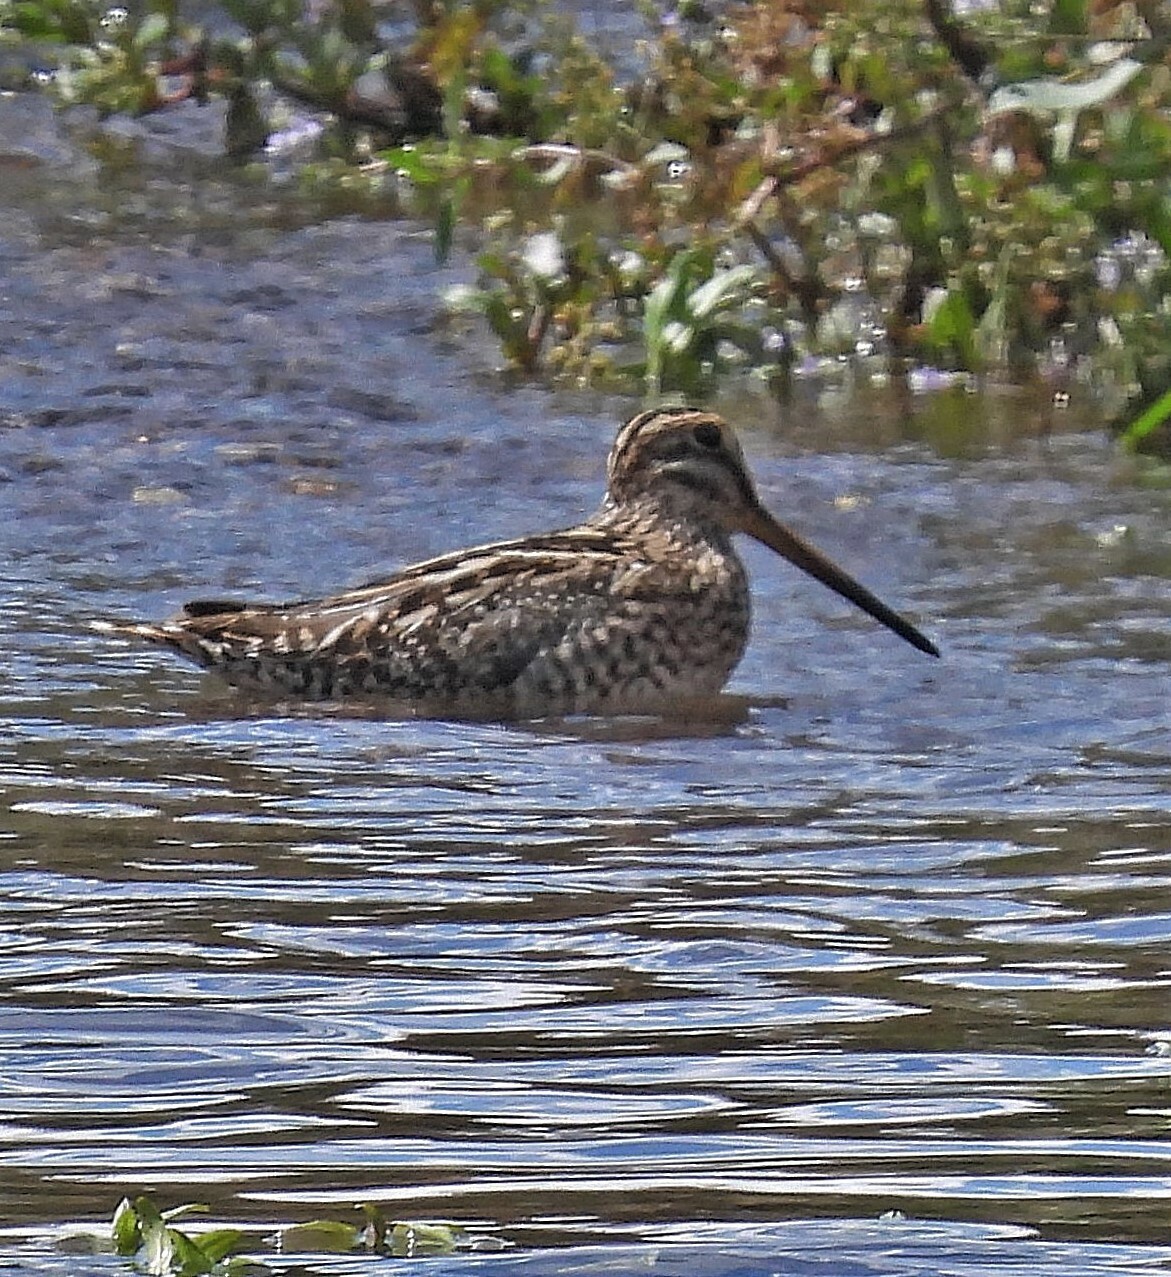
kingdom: Animalia
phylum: Chordata
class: Aves
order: Charadriiformes
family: Scolopacidae
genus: Gallinago
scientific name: Gallinago magellanica
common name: Magellanic snipe
